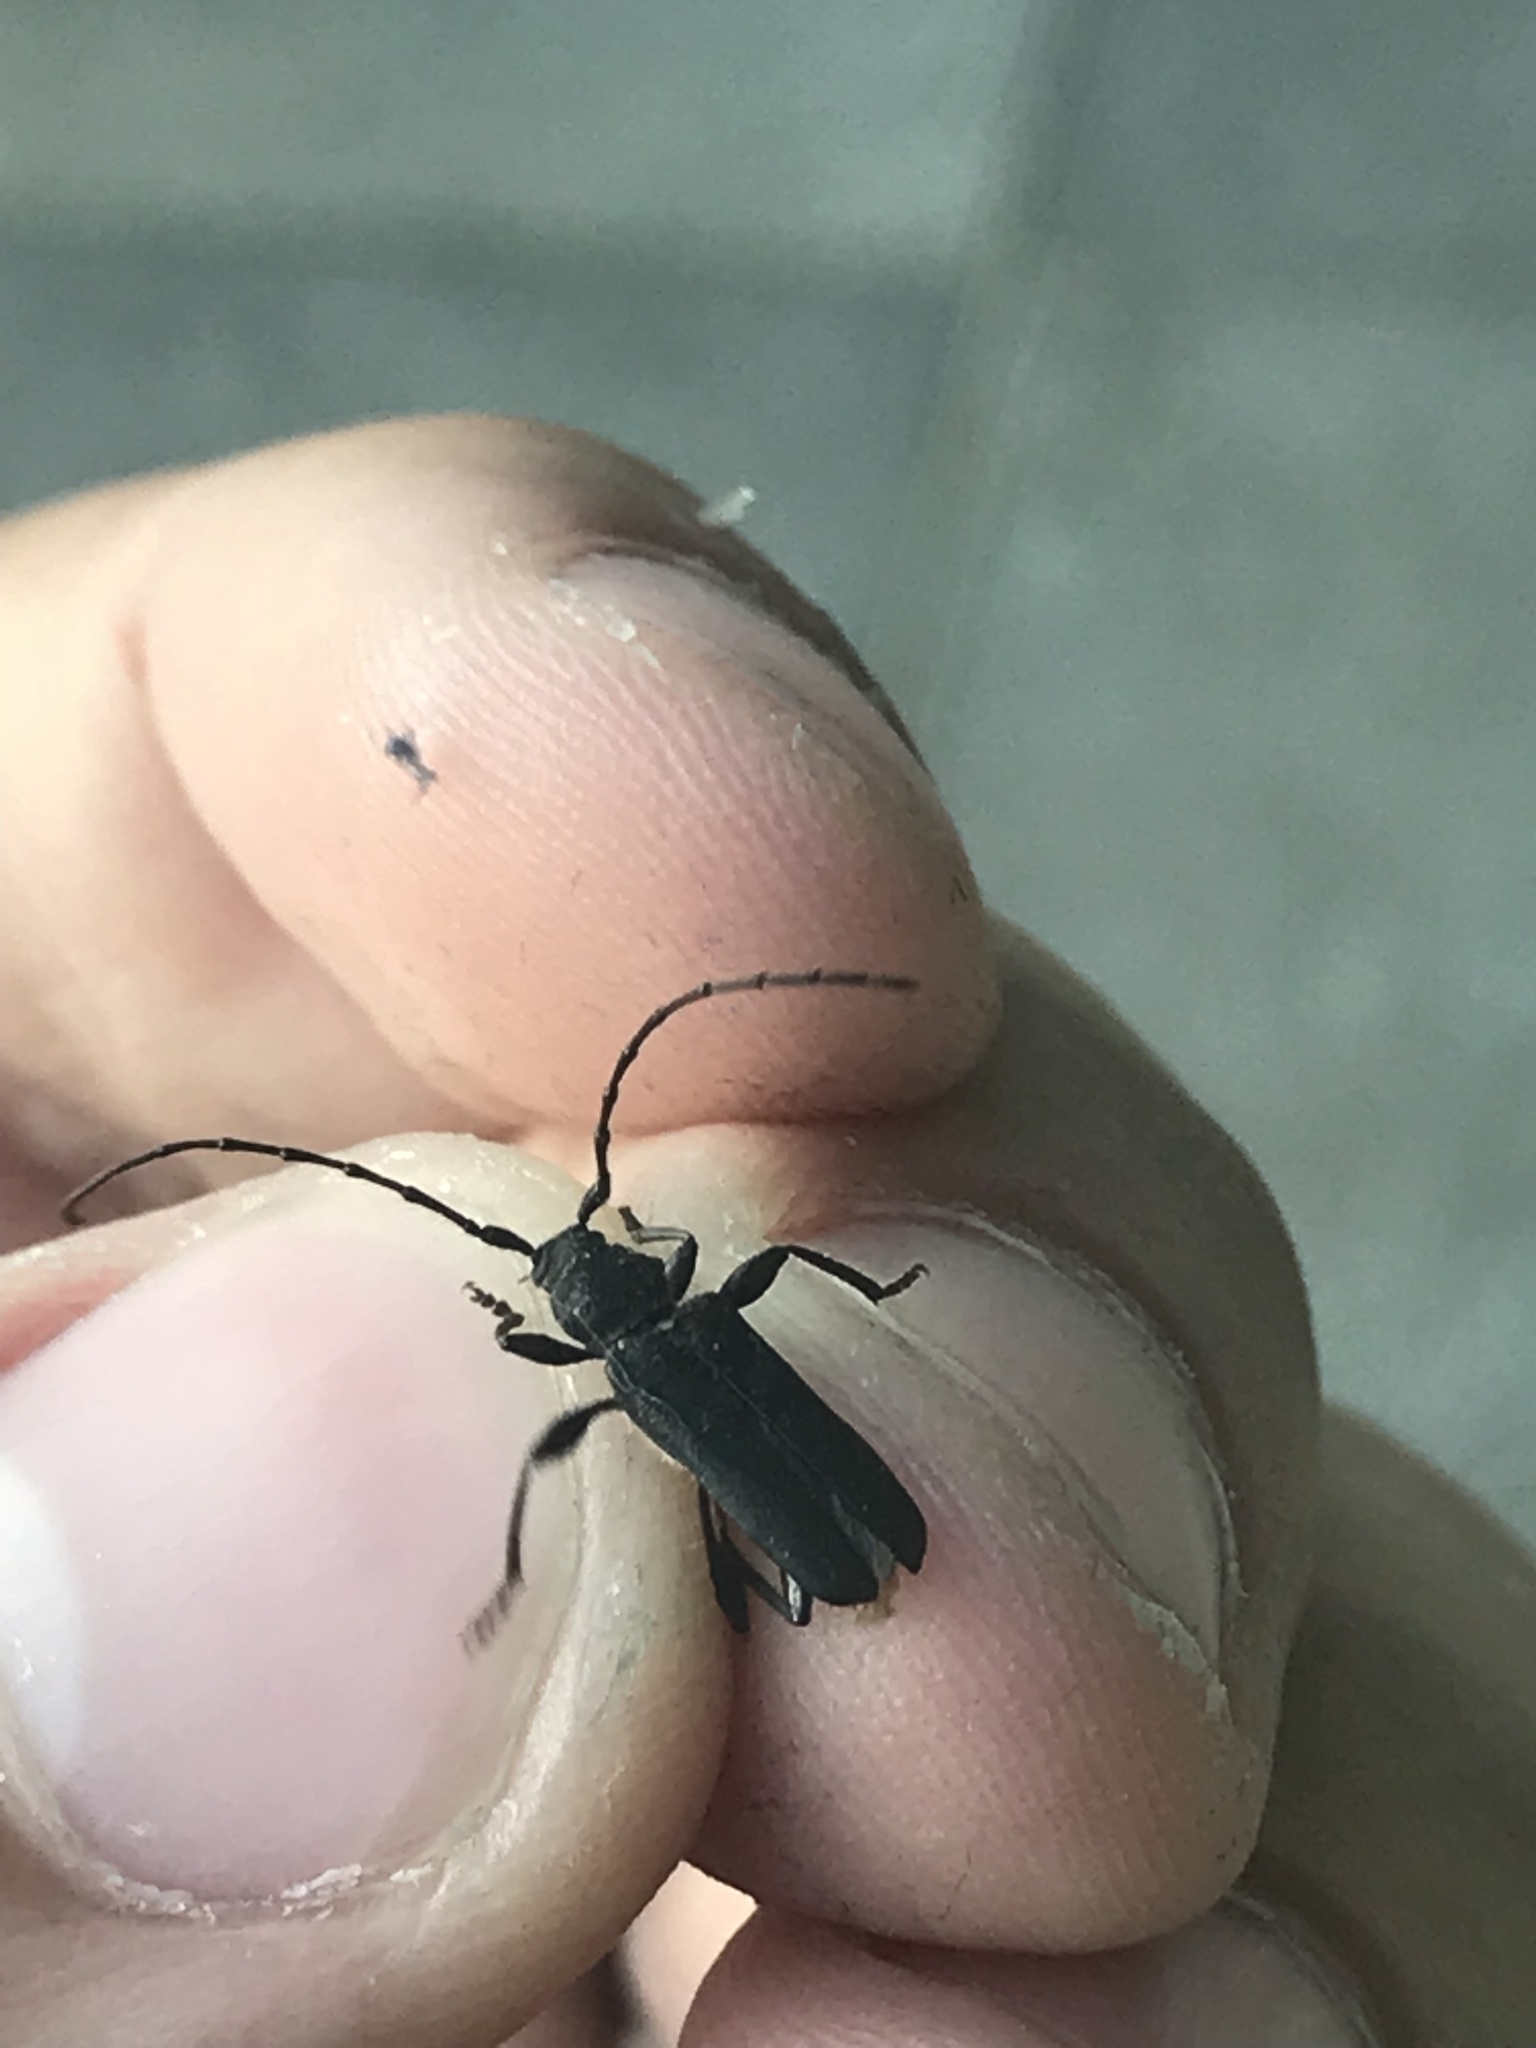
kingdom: Animalia
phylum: Arthropoda
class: Insecta
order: Coleoptera
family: Cerambycidae
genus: Ropalopus
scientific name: Ropalopus macropus
